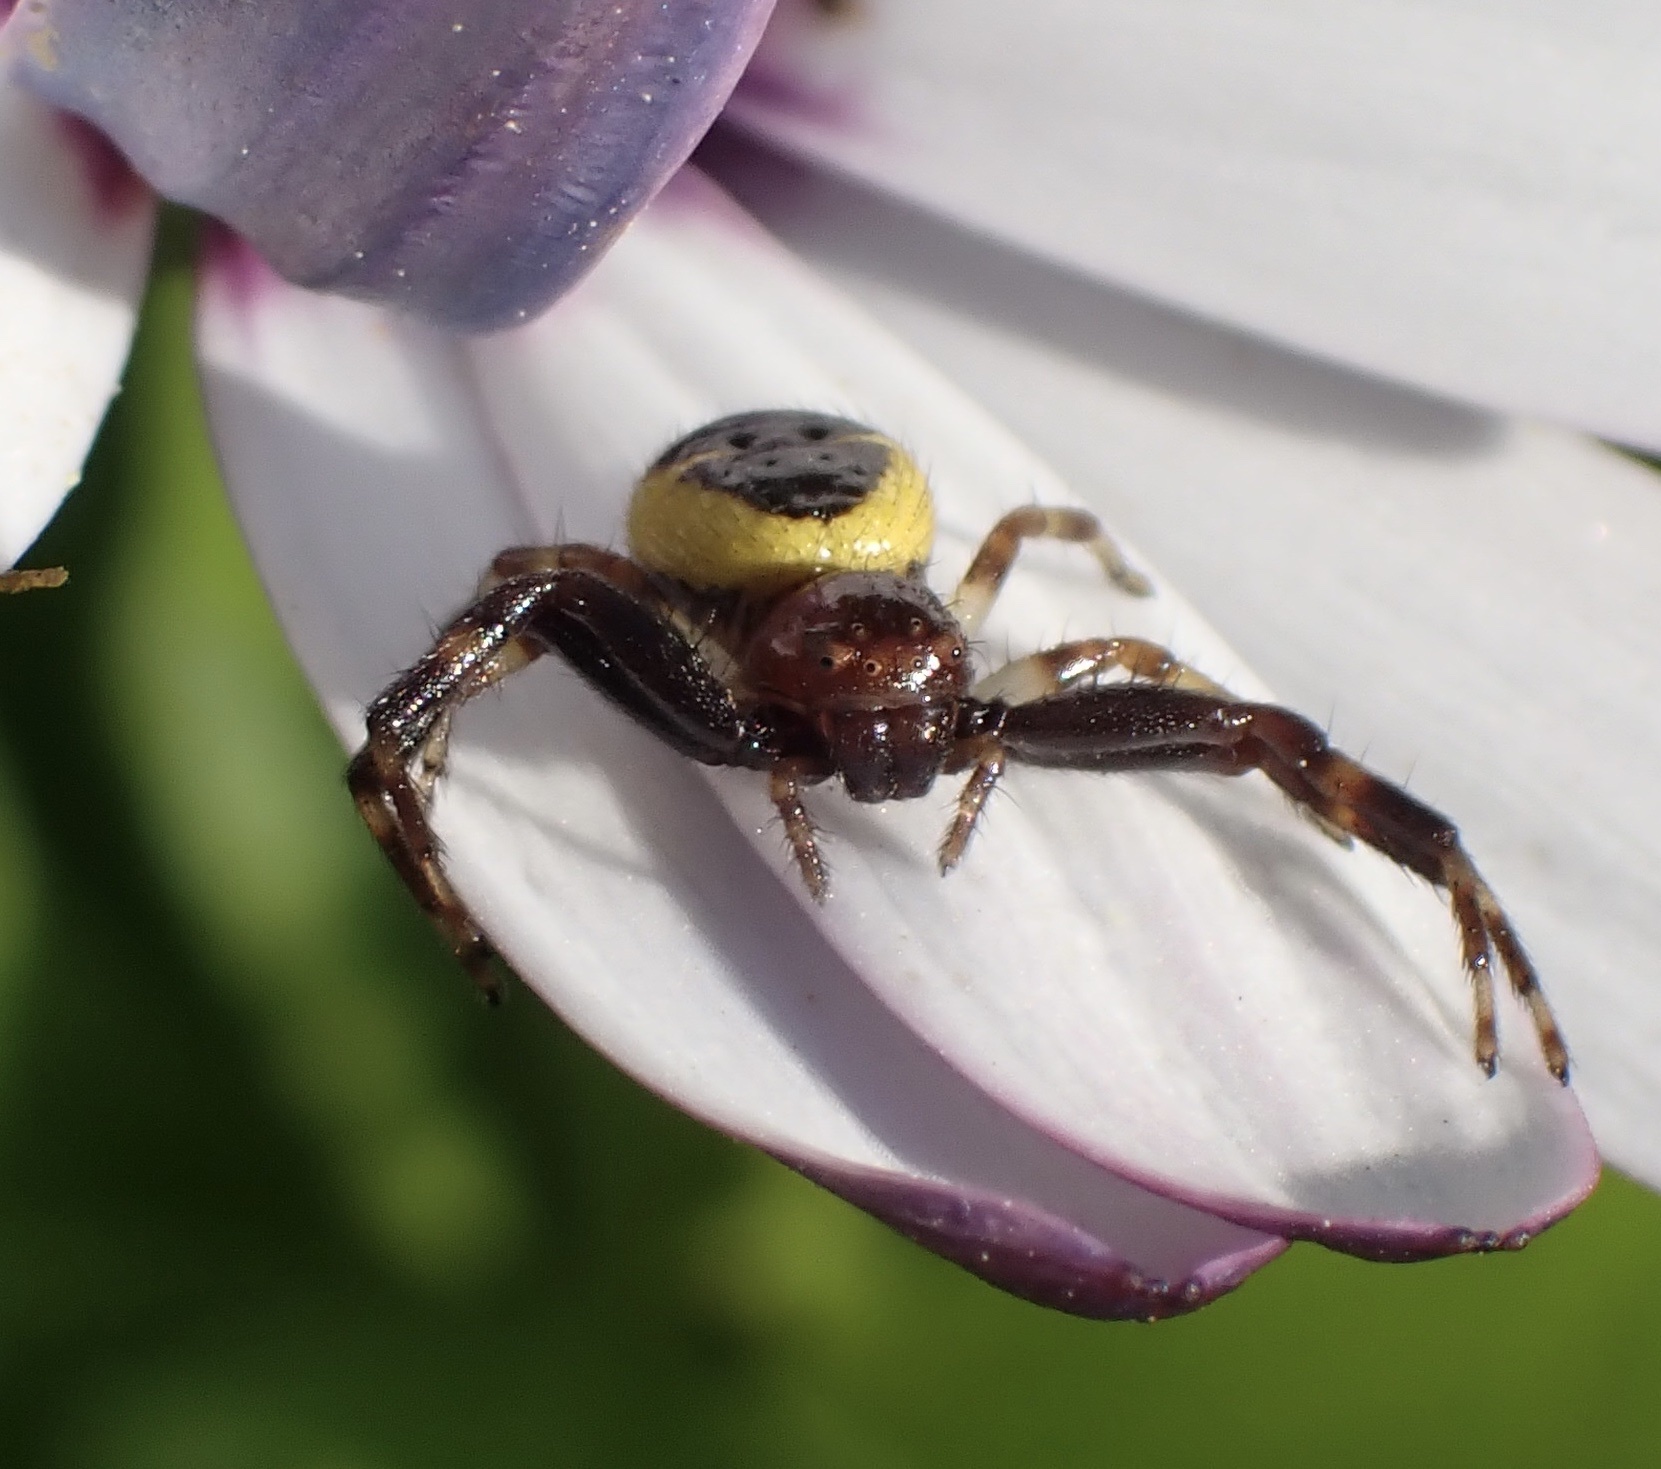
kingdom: Animalia
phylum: Arthropoda
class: Arachnida
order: Araneae
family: Thomisidae
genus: Synema
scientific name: Synema globosum
